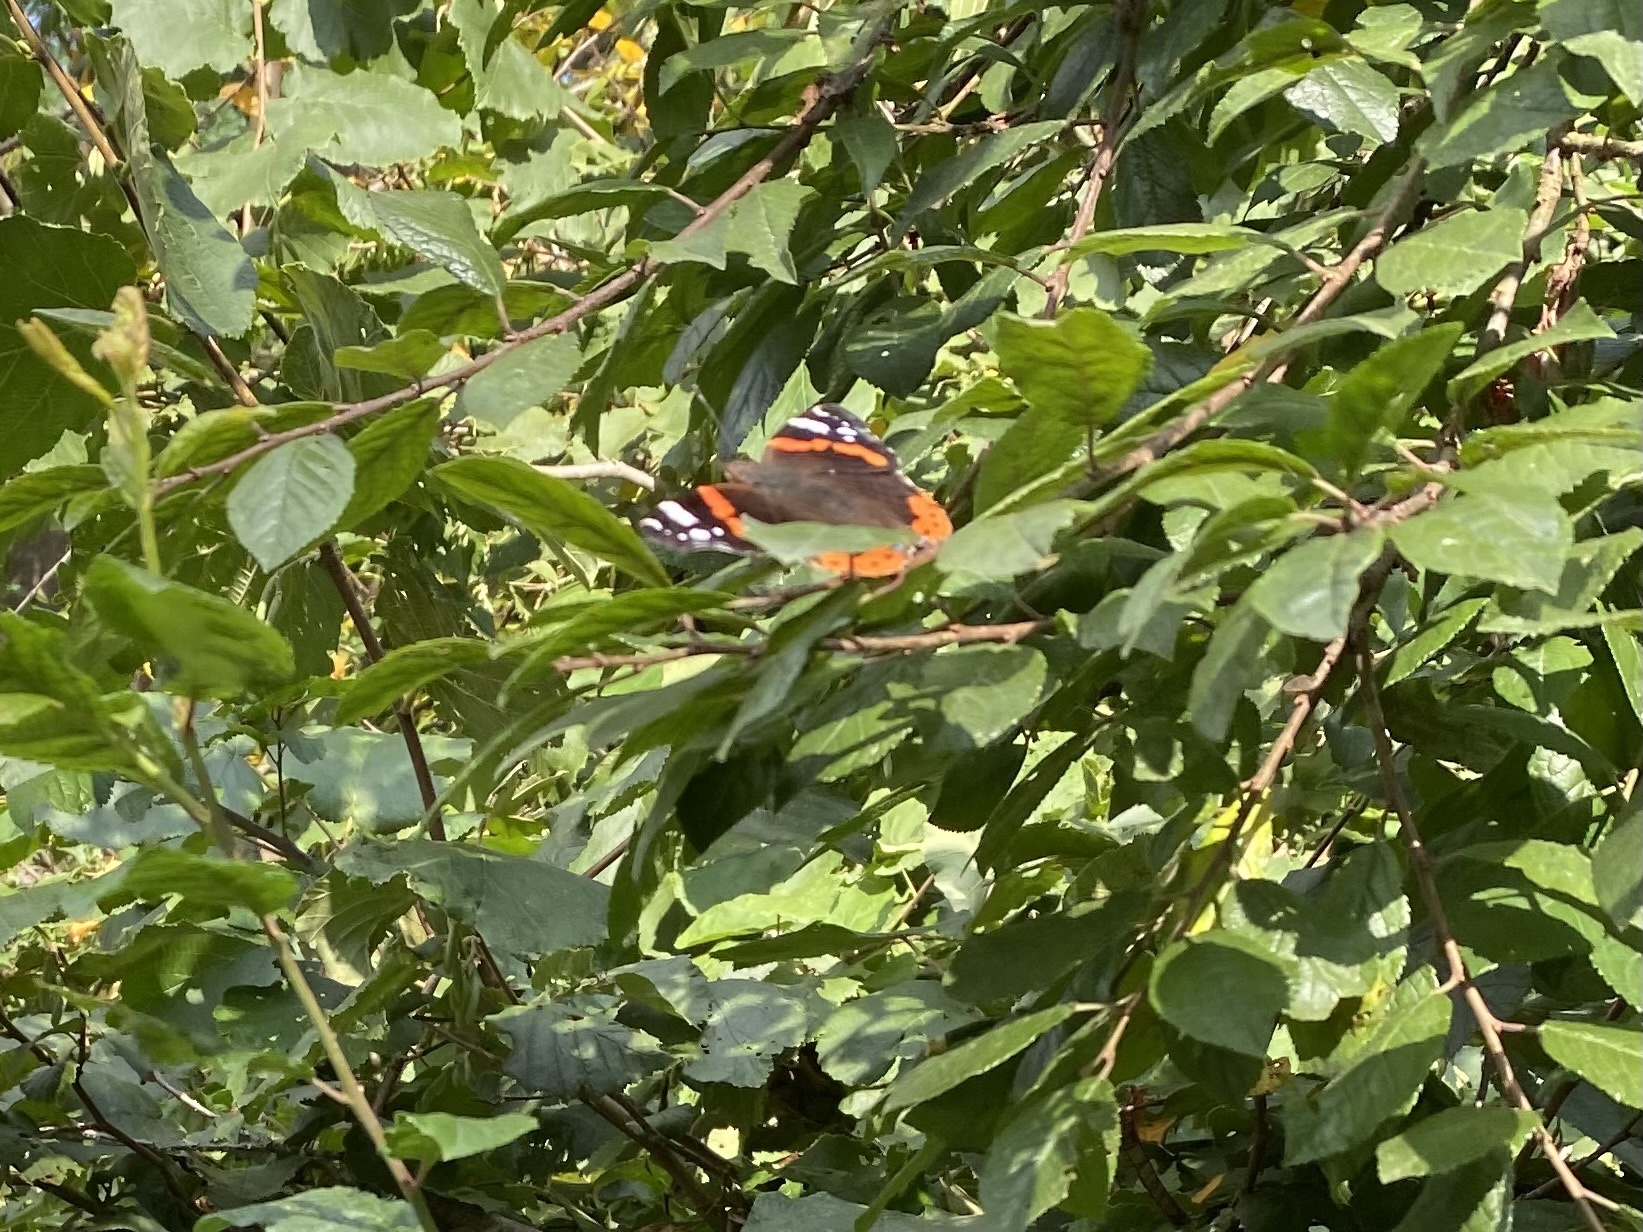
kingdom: Animalia
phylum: Arthropoda
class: Insecta
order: Lepidoptera
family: Nymphalidae
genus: Vanessa
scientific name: Vanessa atalanta
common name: Red admiral
